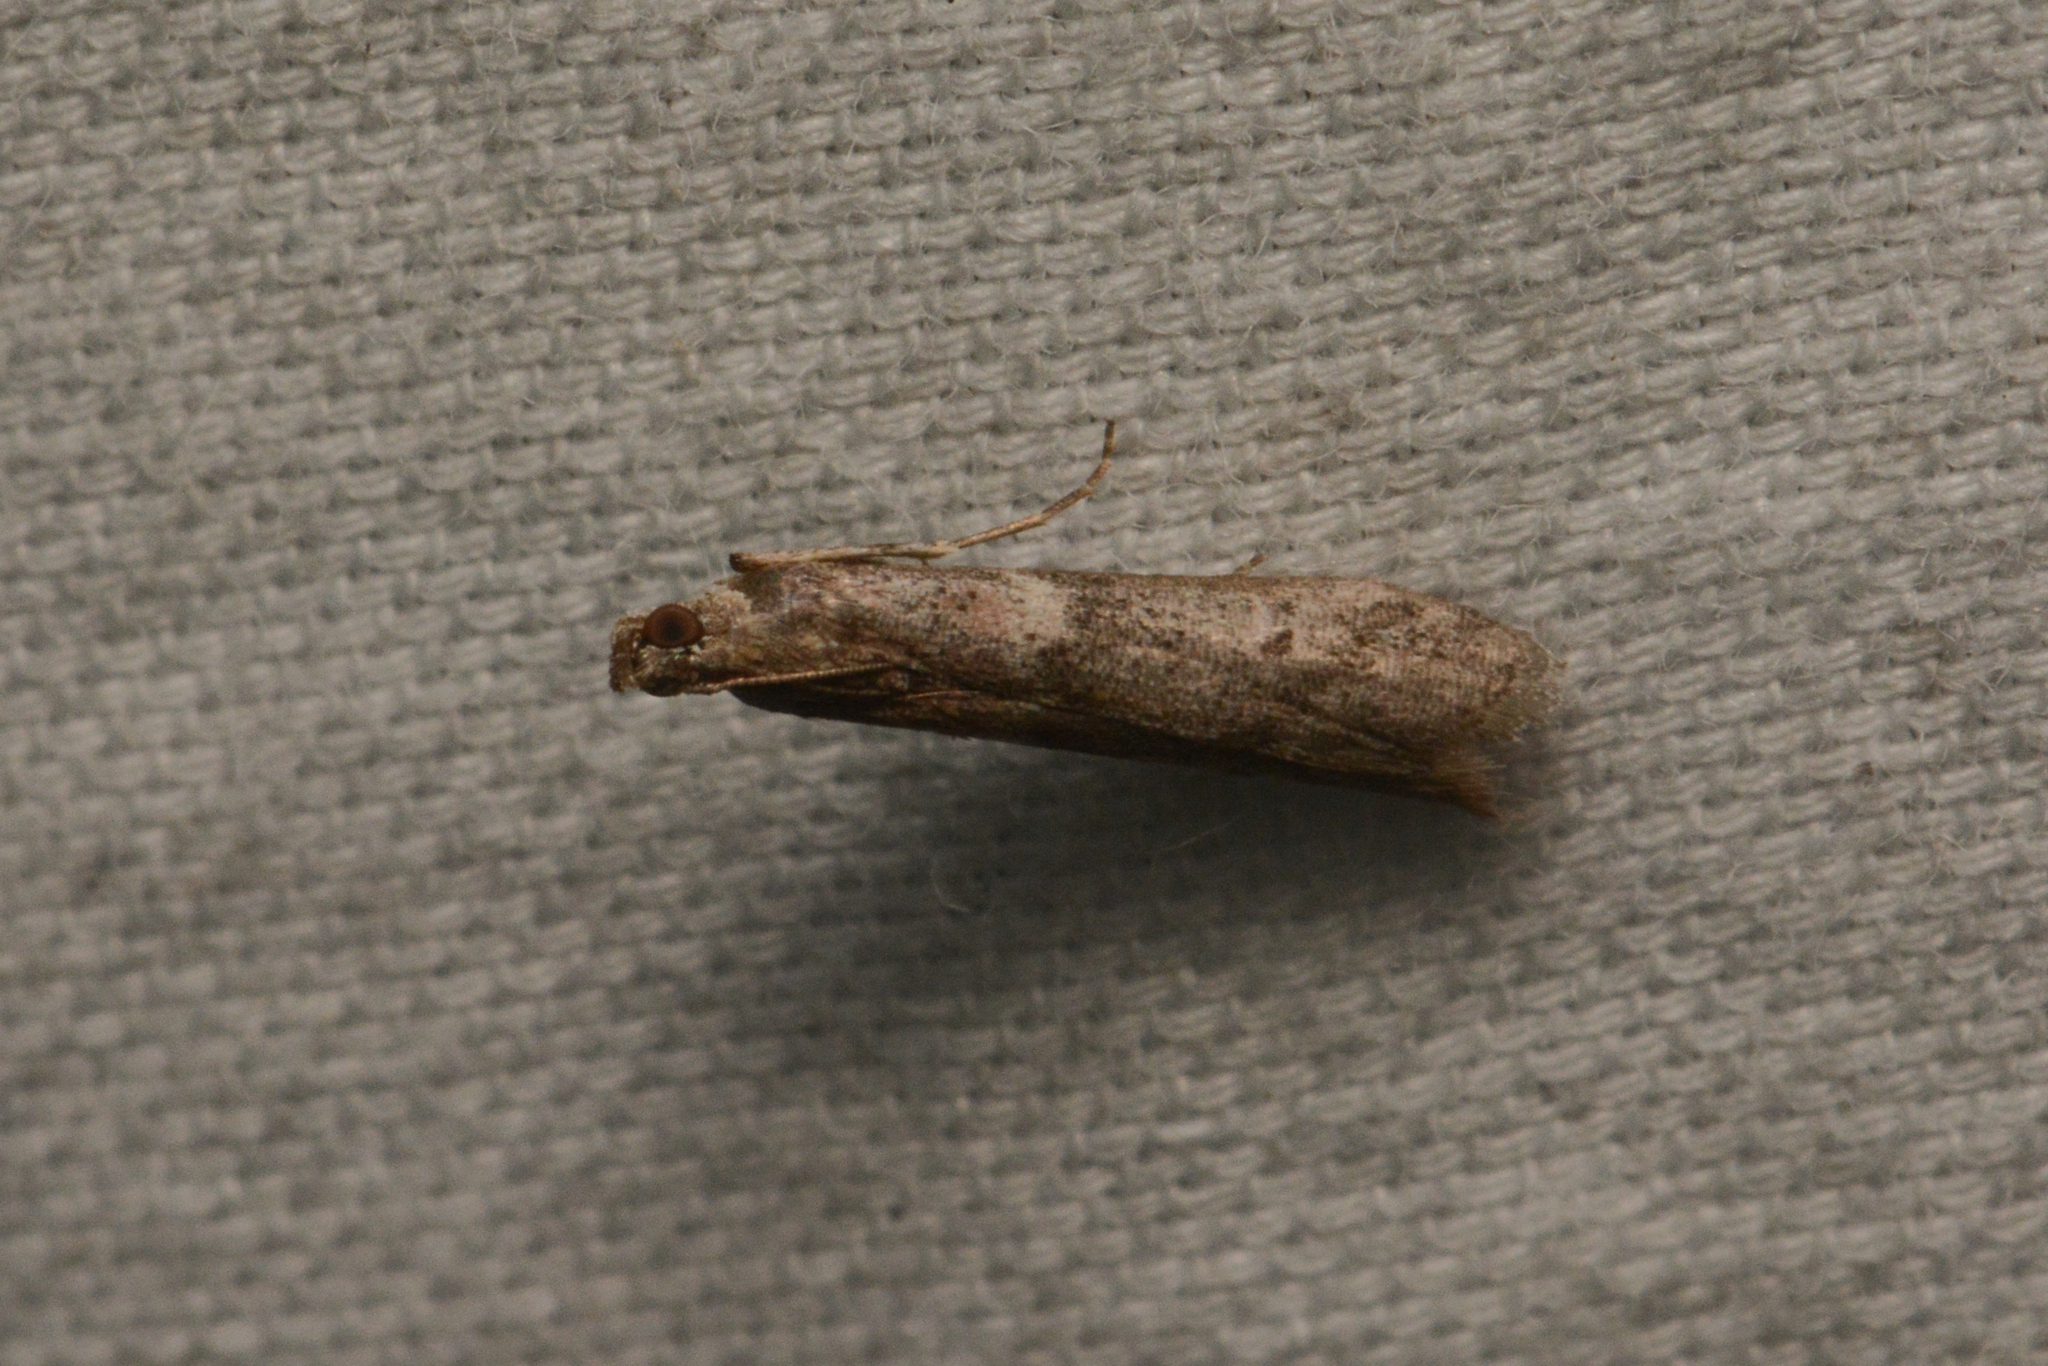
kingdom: Animalia
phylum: Arthropoda
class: Insecta
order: Lepidoptera
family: Pyralidae
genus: Ephestiodes
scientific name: Ephestiodes gilvescentella
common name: Moth
